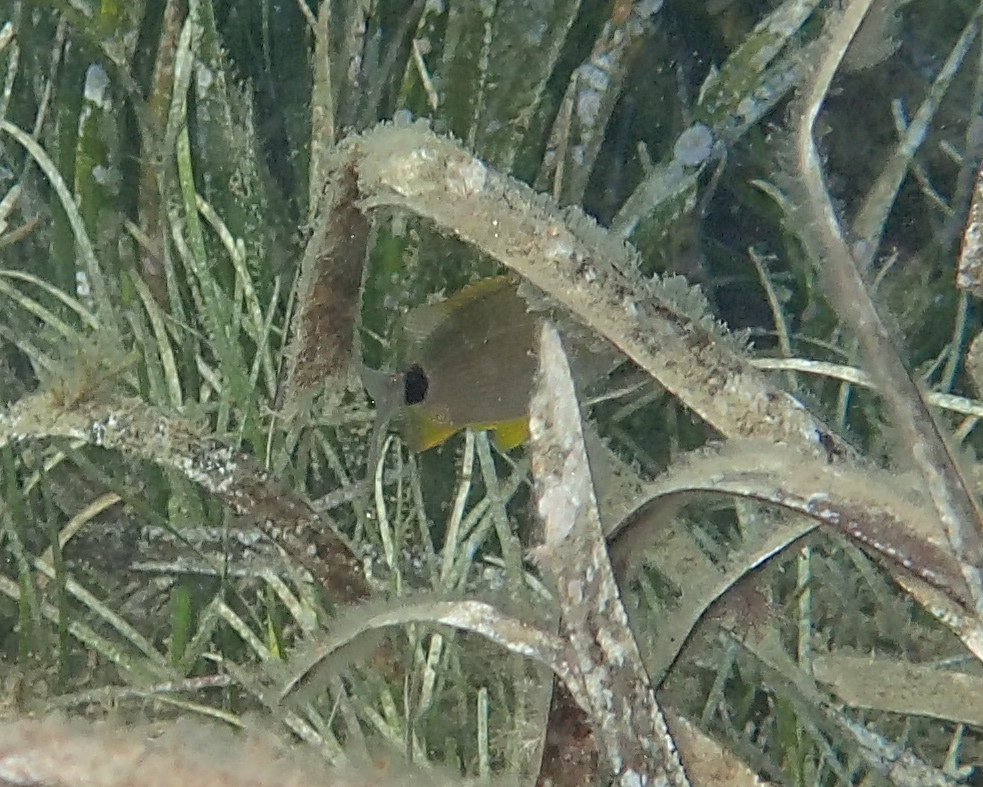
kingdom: Animalia
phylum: Chordata
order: Perciformes
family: Sparidae
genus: Diplodus
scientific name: Diplodus annularis
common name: Annular seabream
